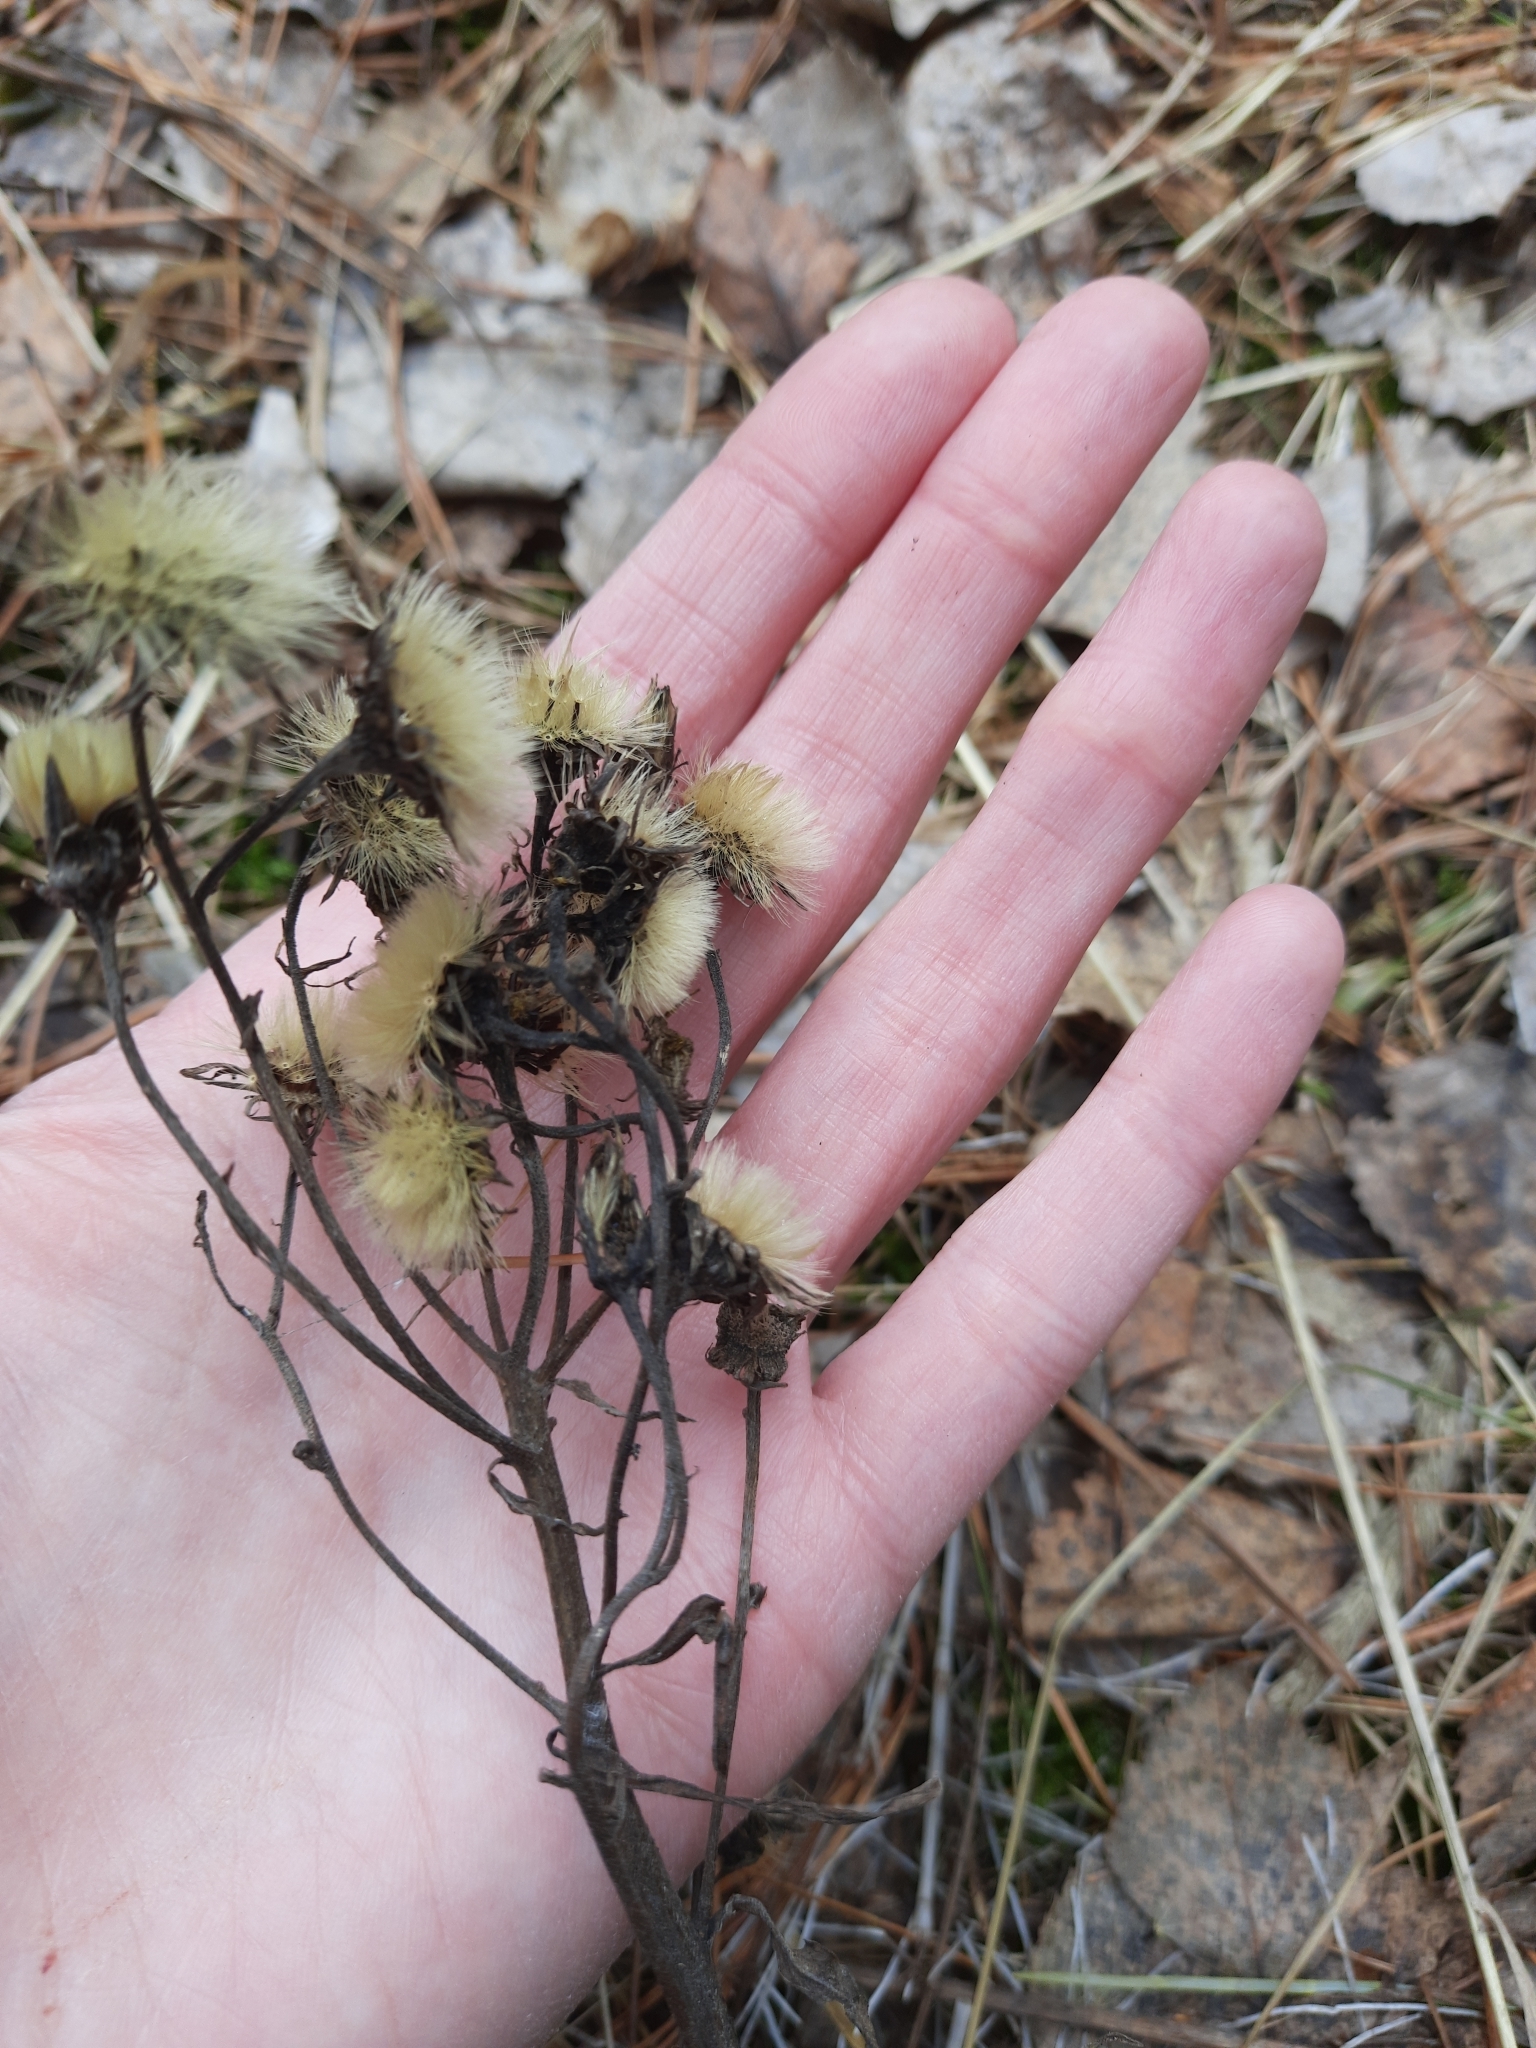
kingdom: Plantae
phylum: Tracheophyta
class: Magnoliopsida
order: Asterales
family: Asteraceae
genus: Hieracium
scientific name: Hieracium umbellatum
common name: Northern hawkweed
